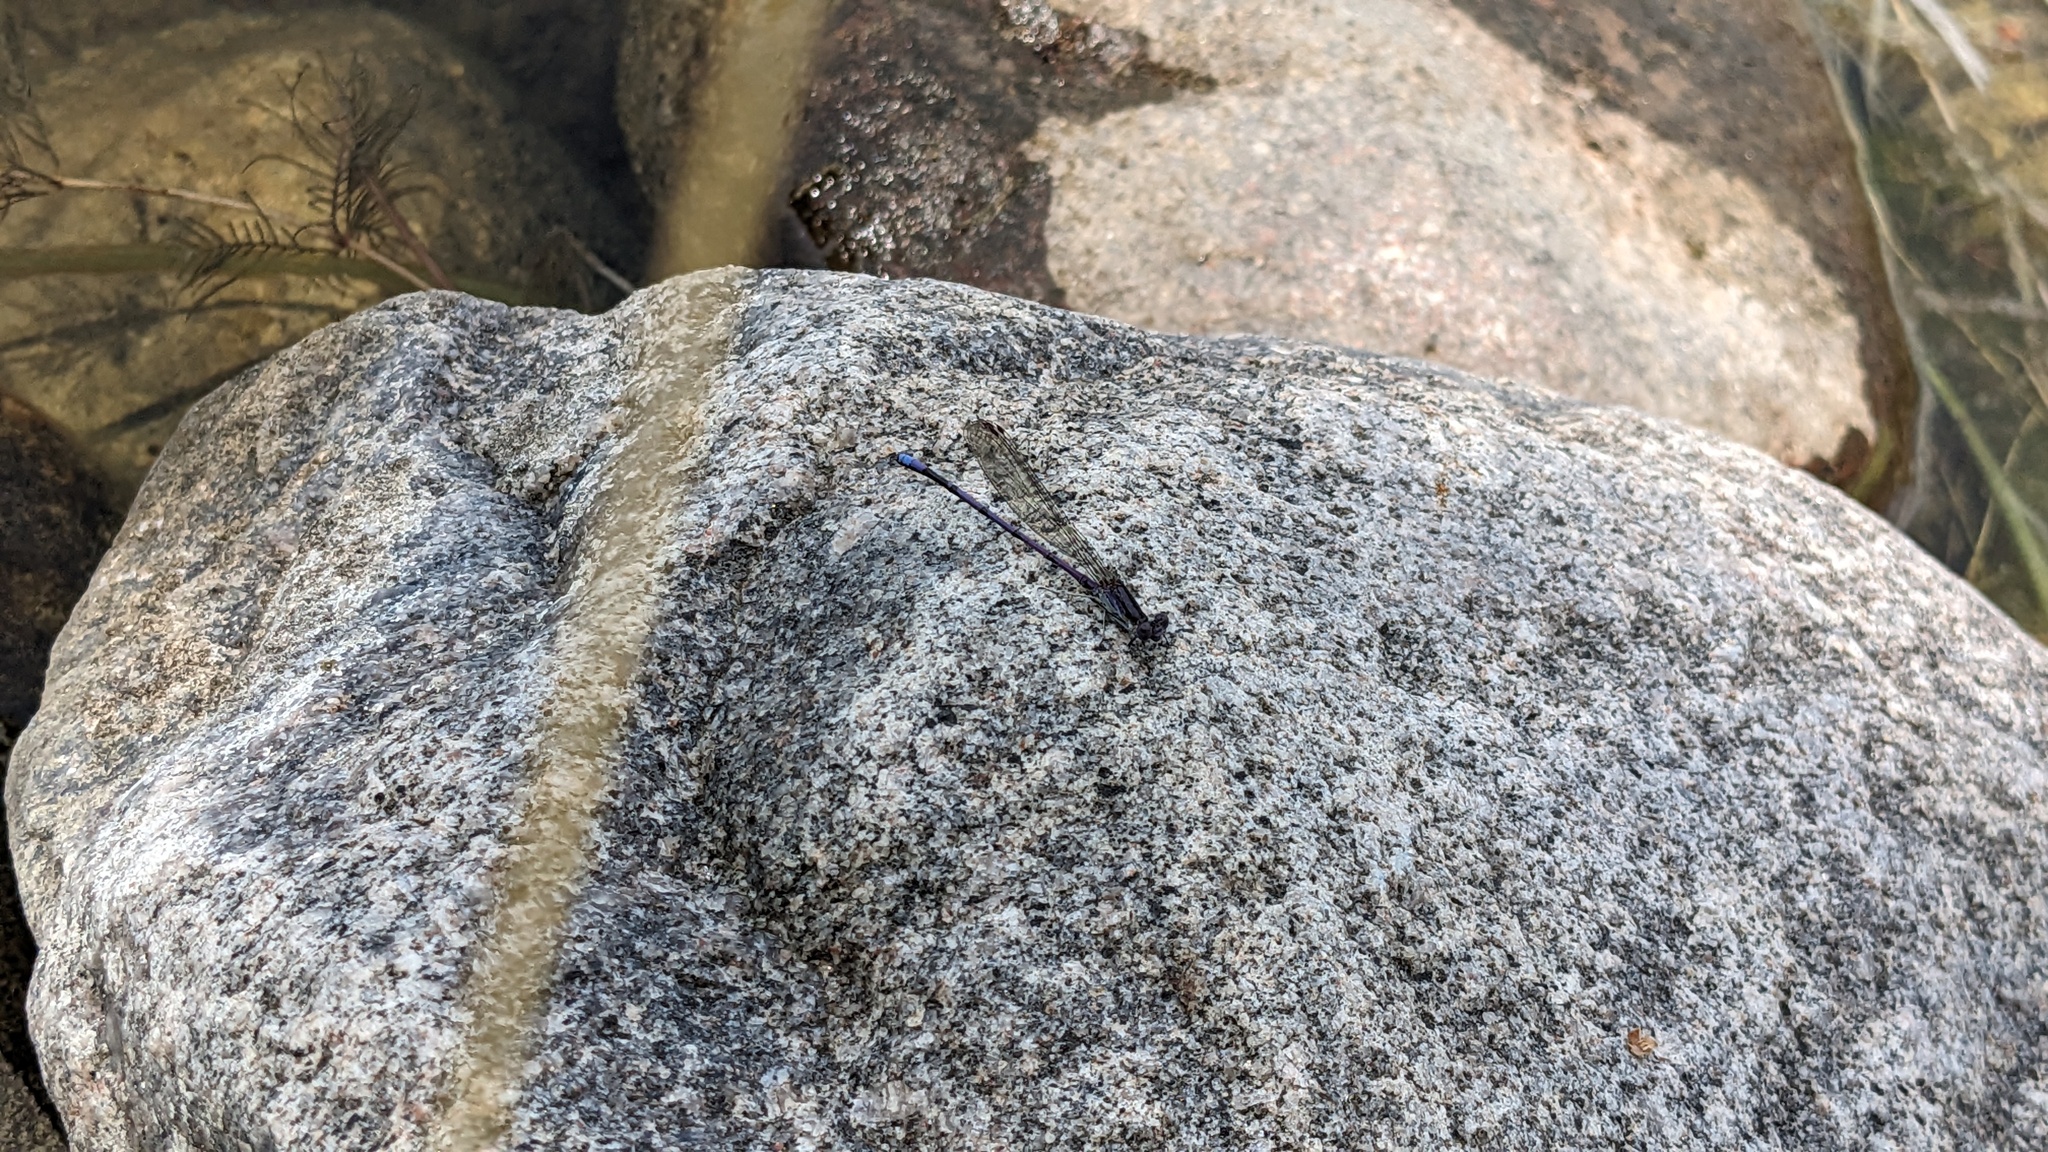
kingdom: Animalia
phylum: Arthropoda
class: Insecta
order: Odonata
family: Coenagrionidae
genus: Argia
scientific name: Argia fumipennis
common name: Variable dancer
